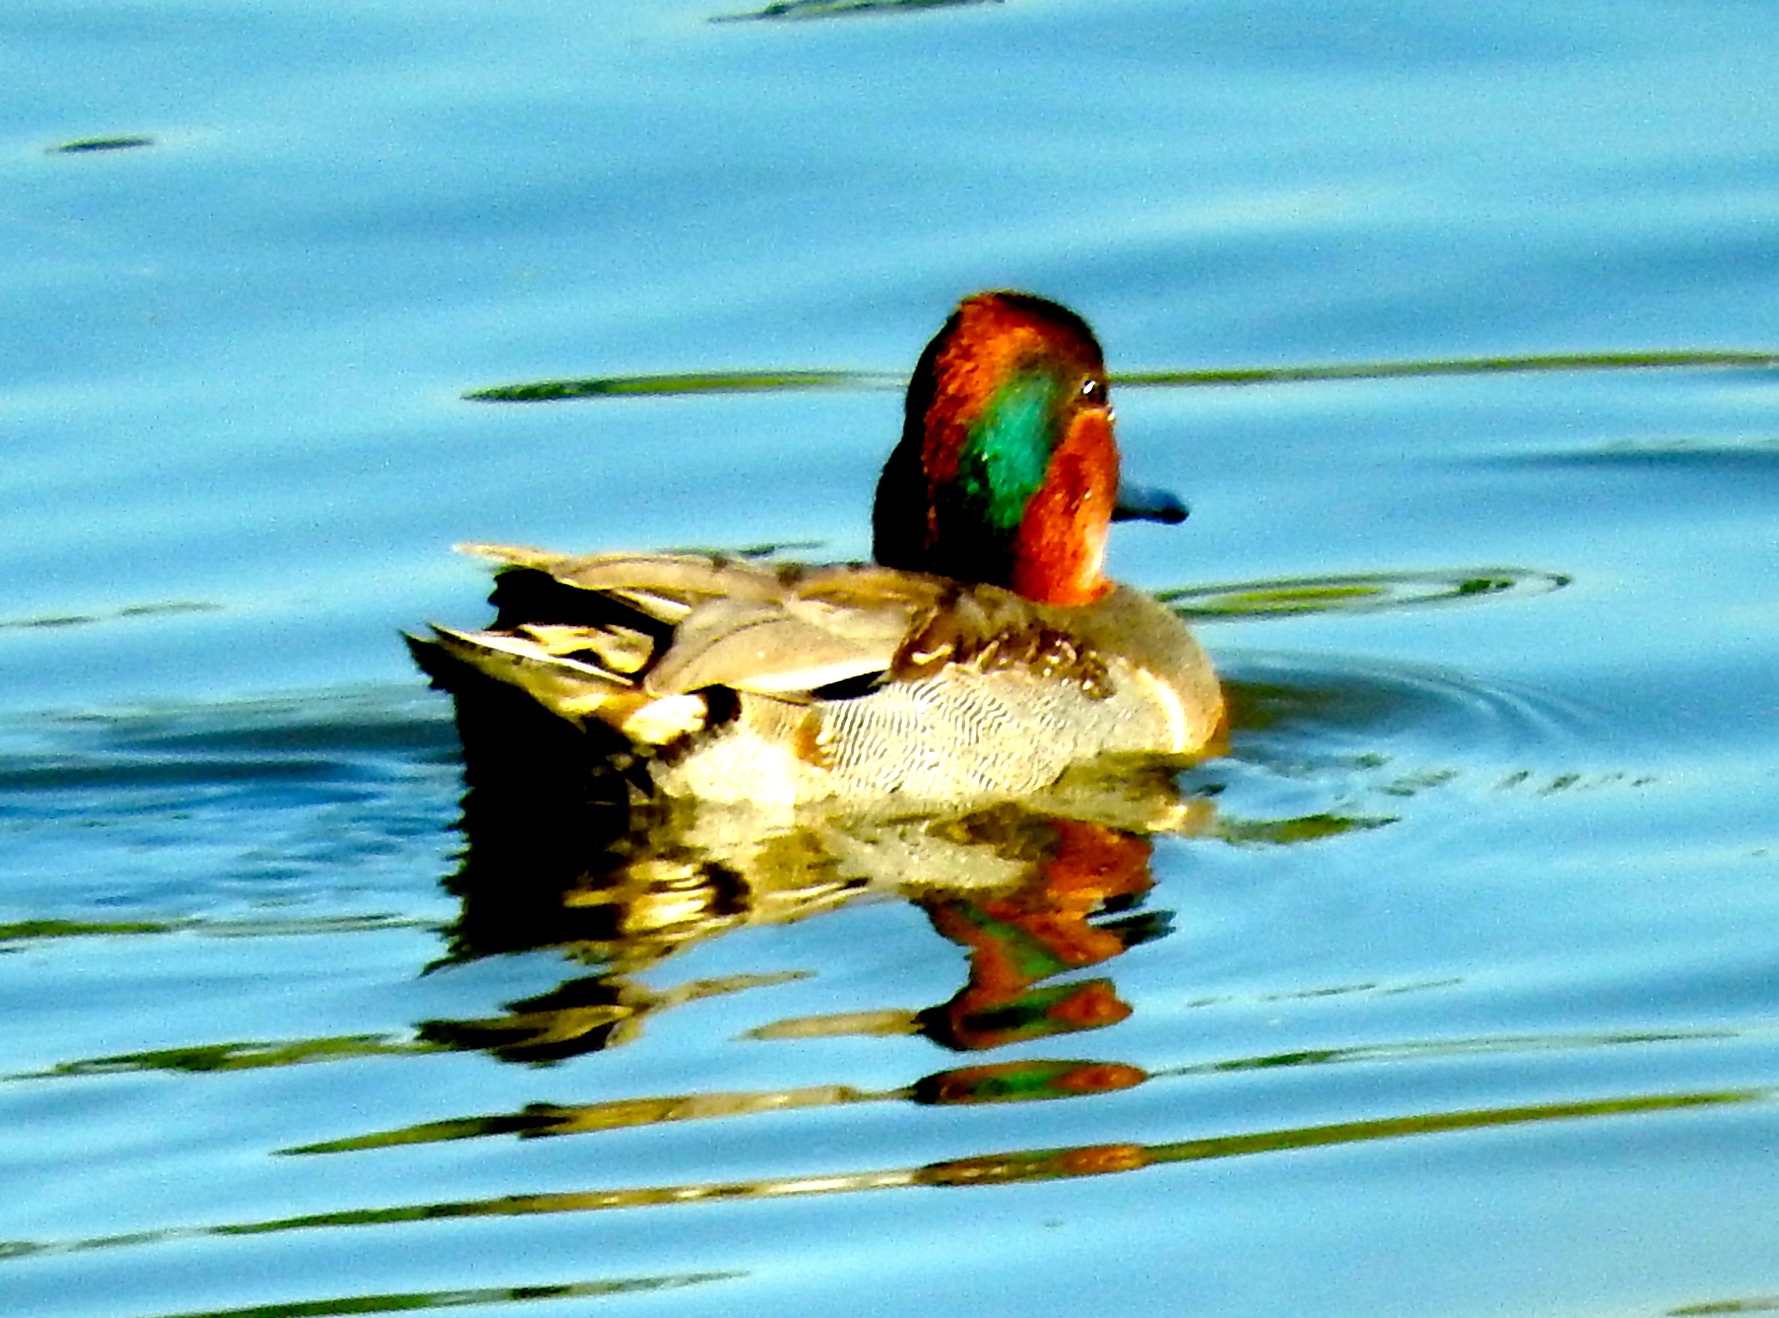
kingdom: Animalia
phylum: Chordata
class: Aves
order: Anseriformes
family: Anatidae
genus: Anas
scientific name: Anas crecca
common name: Eurasian teal
